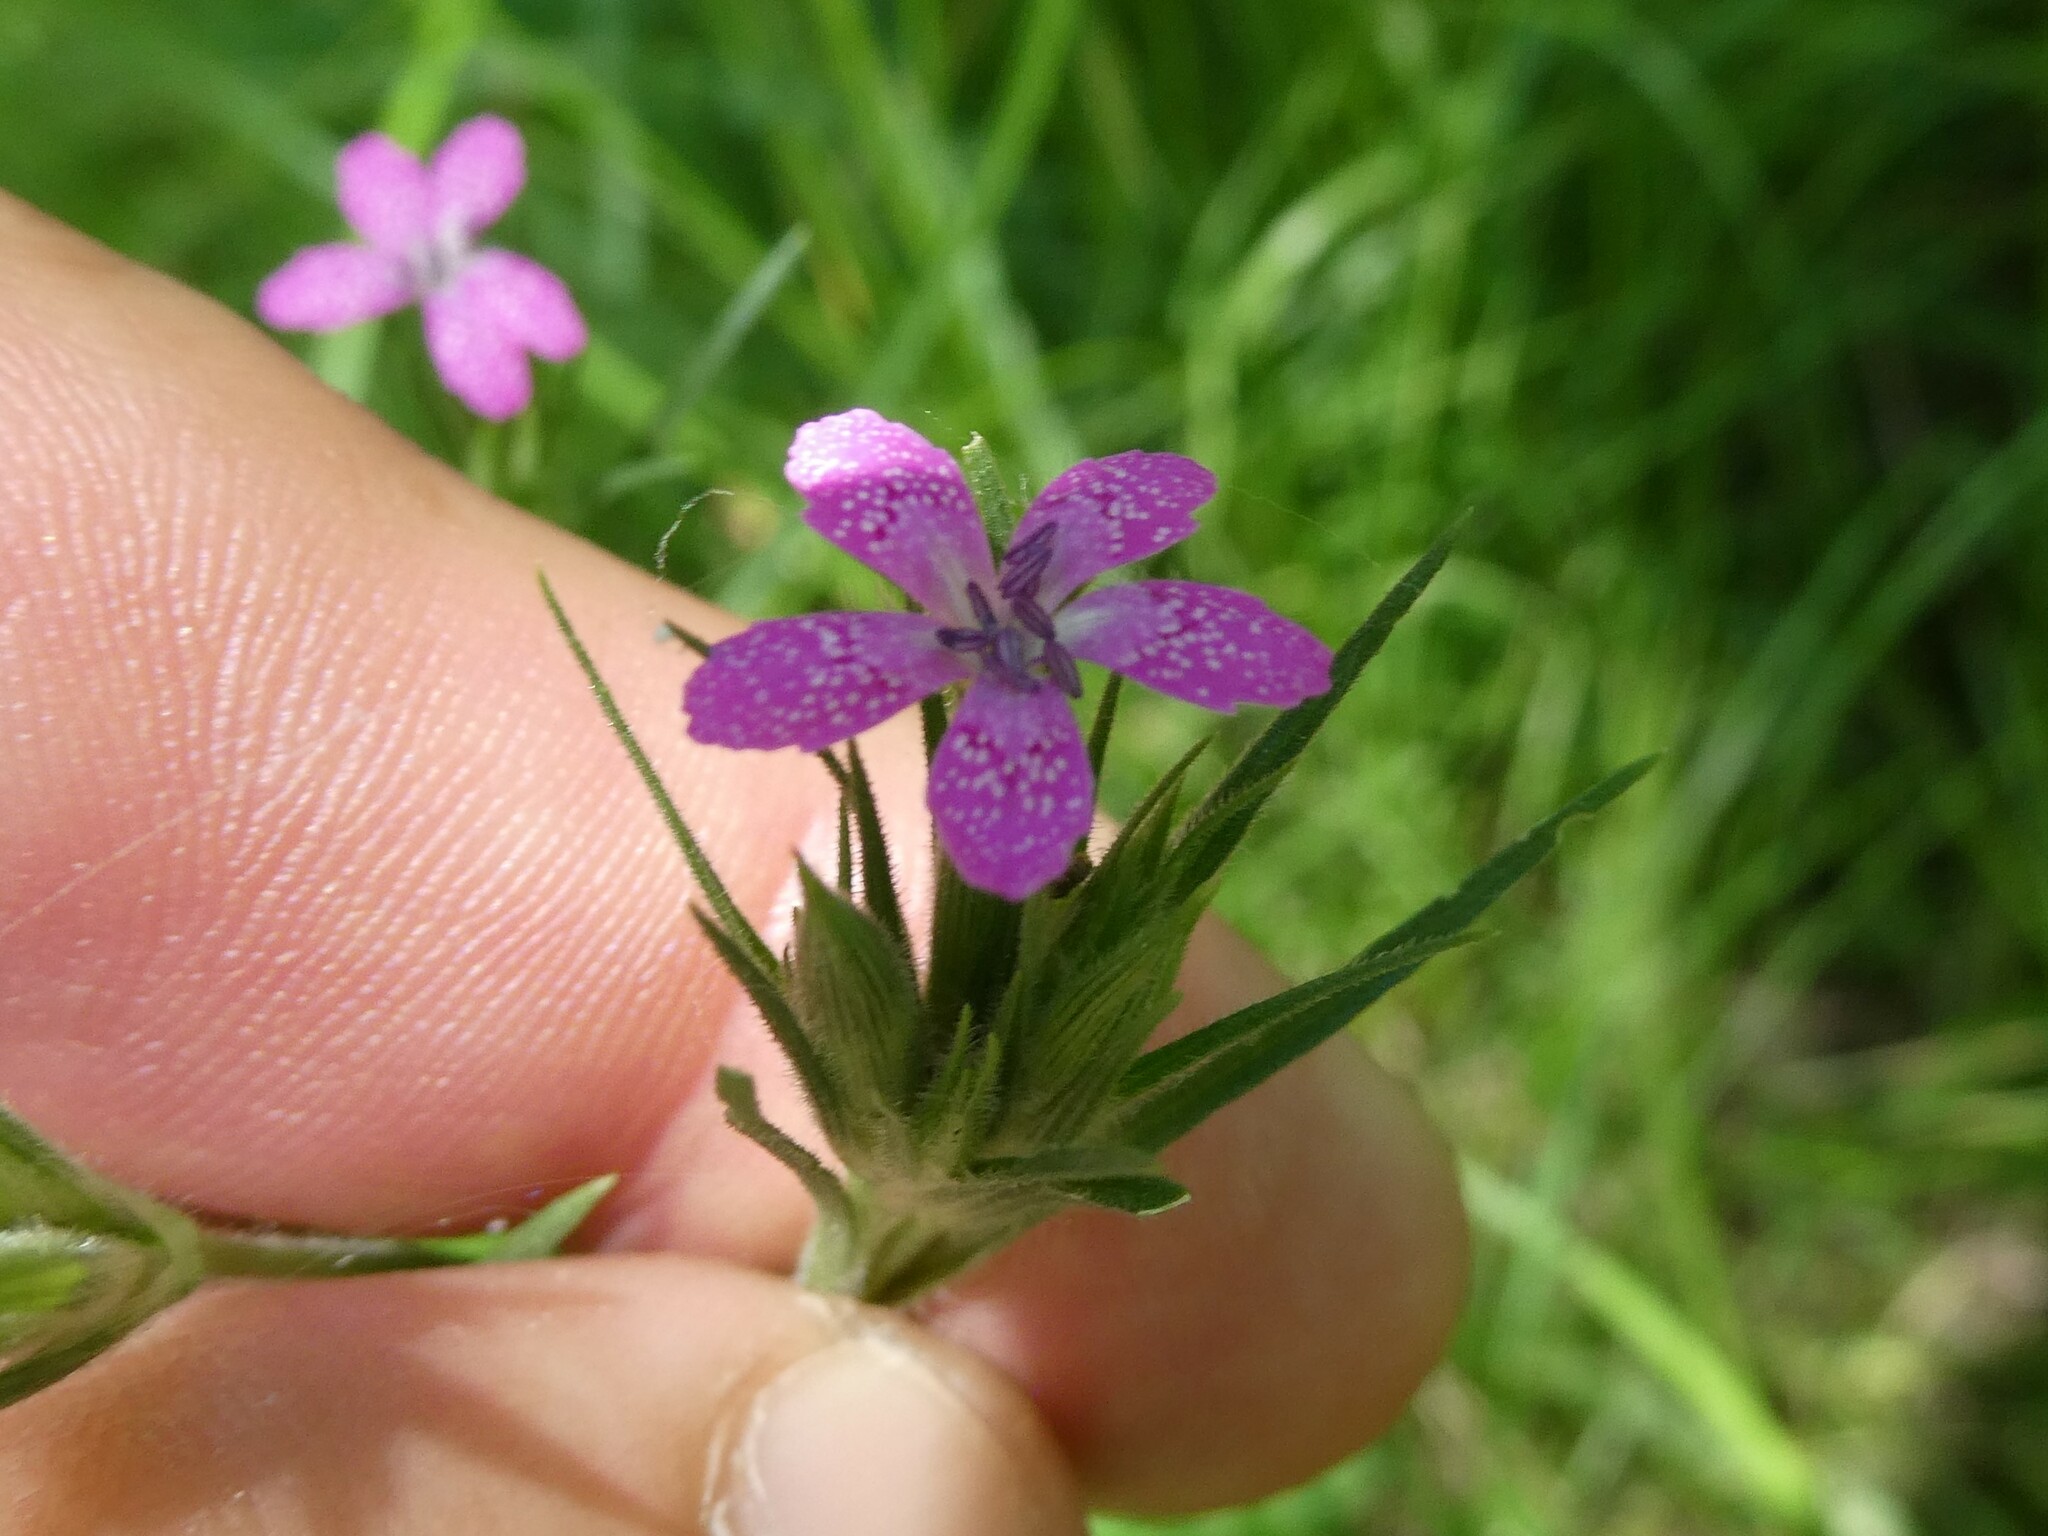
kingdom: Plantae
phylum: Tracheophyta
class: Magnoliopsida
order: Caryophyllales
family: Caryophyllaceae
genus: Dianthus
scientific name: Dianthus armeria
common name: Deptford pink
